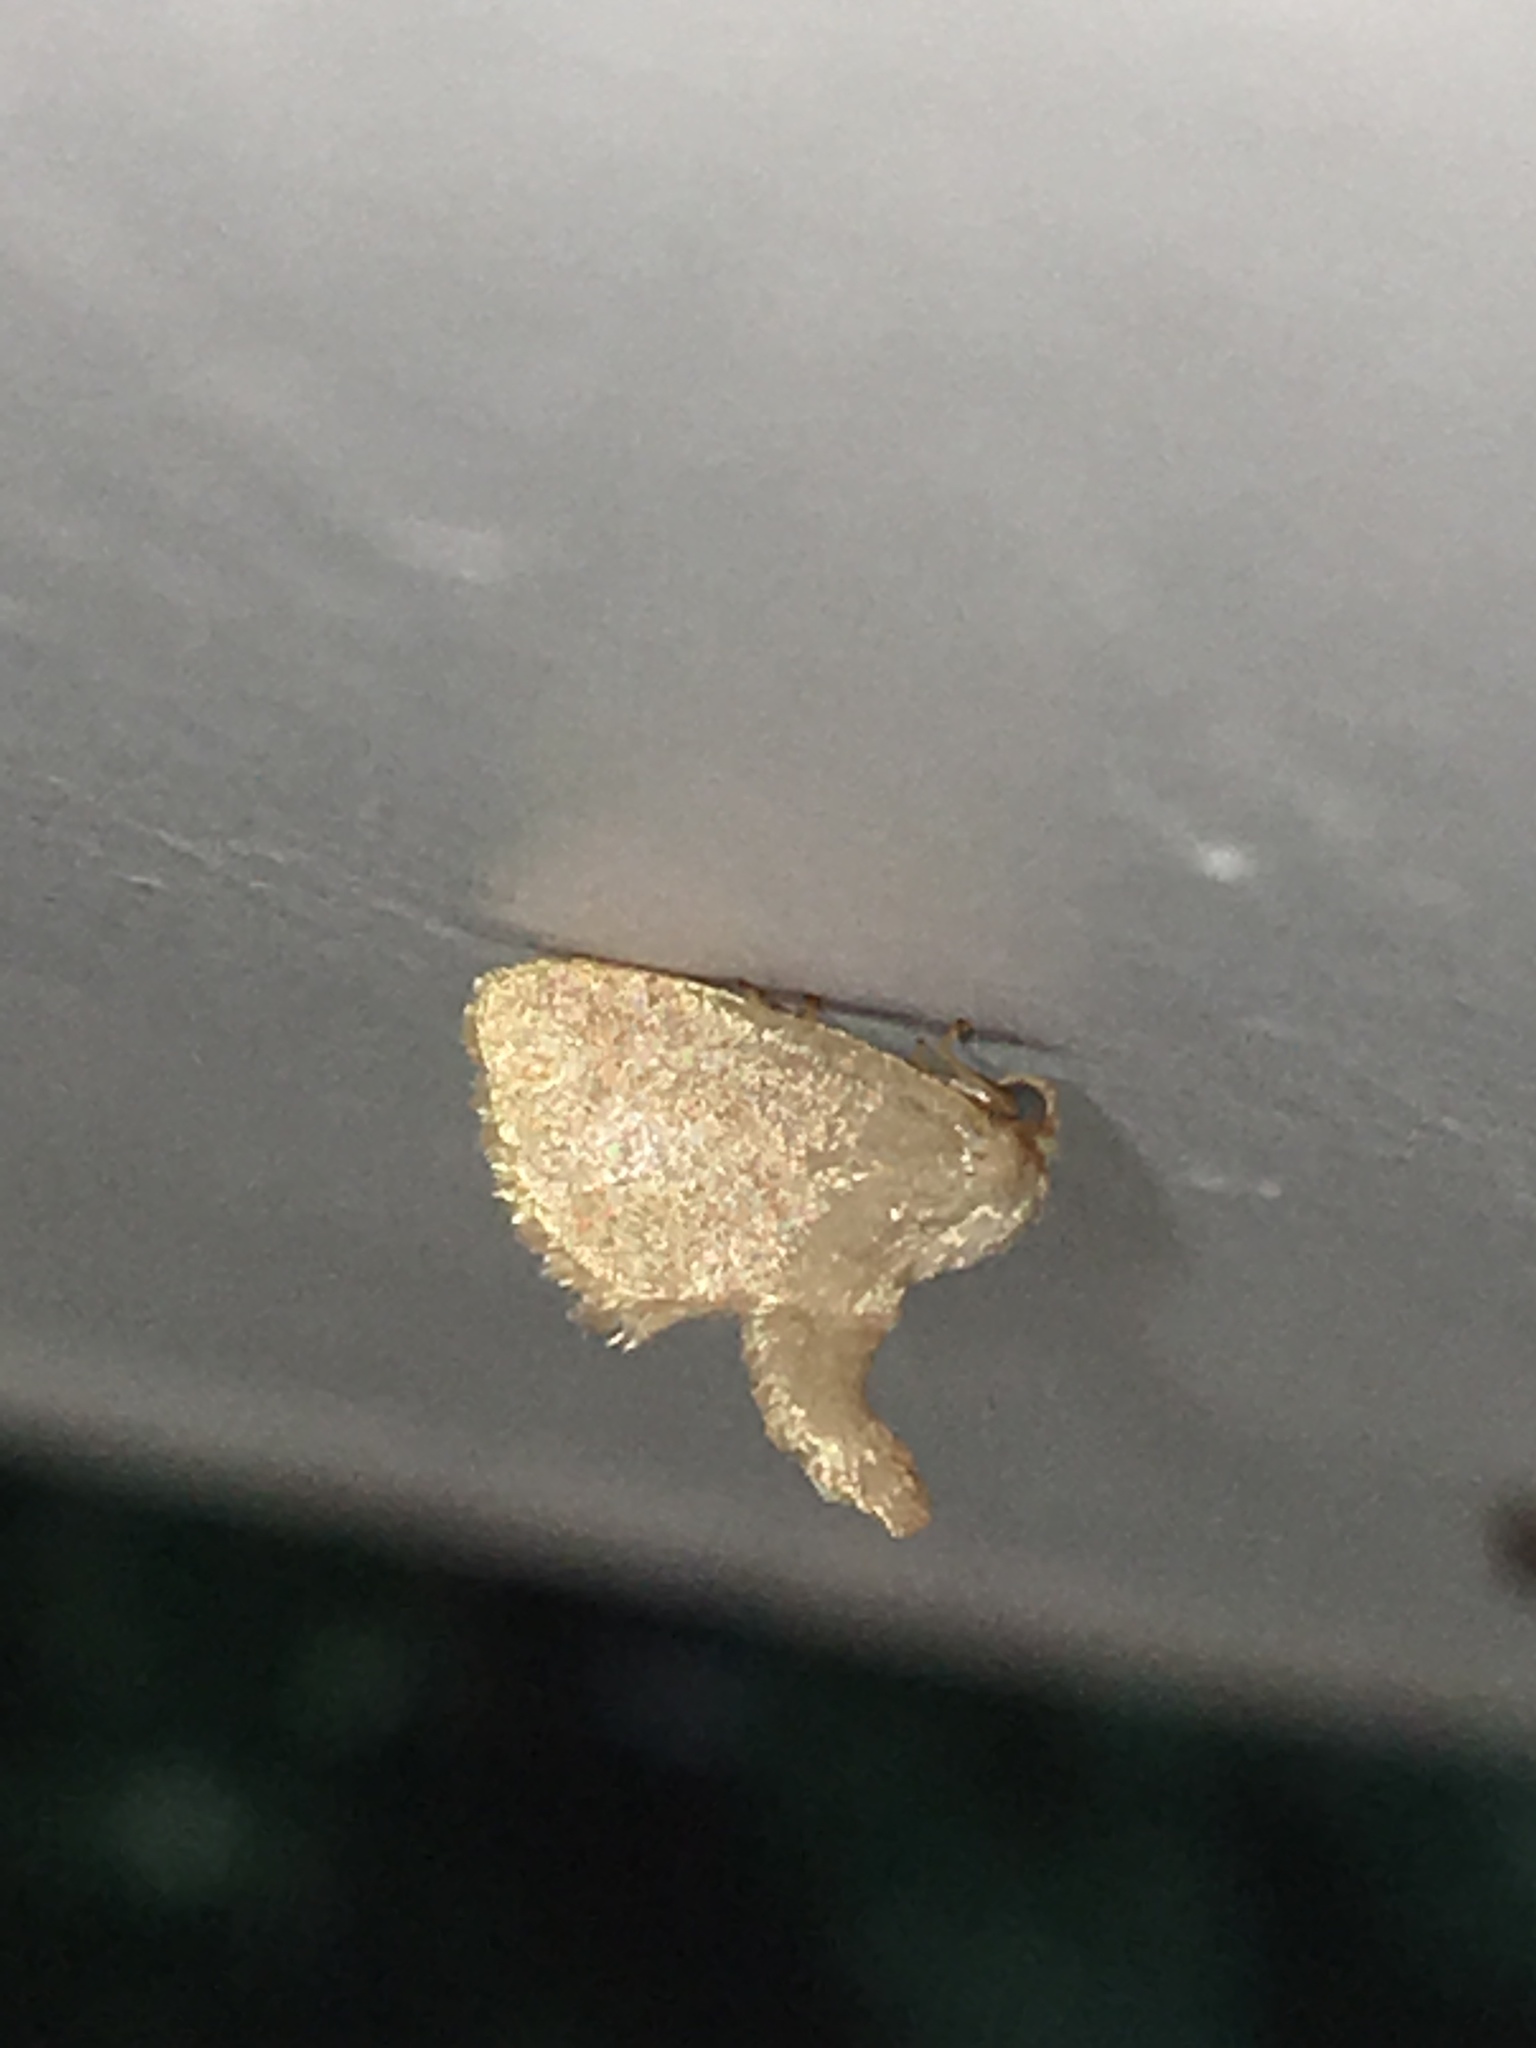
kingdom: Animalia
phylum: Arthropoda
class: Insecta
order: Lepidoptera
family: Limacodidae
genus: Tortricidia
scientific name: Tortricidia flexuosa
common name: Abbreviated button slug moth
